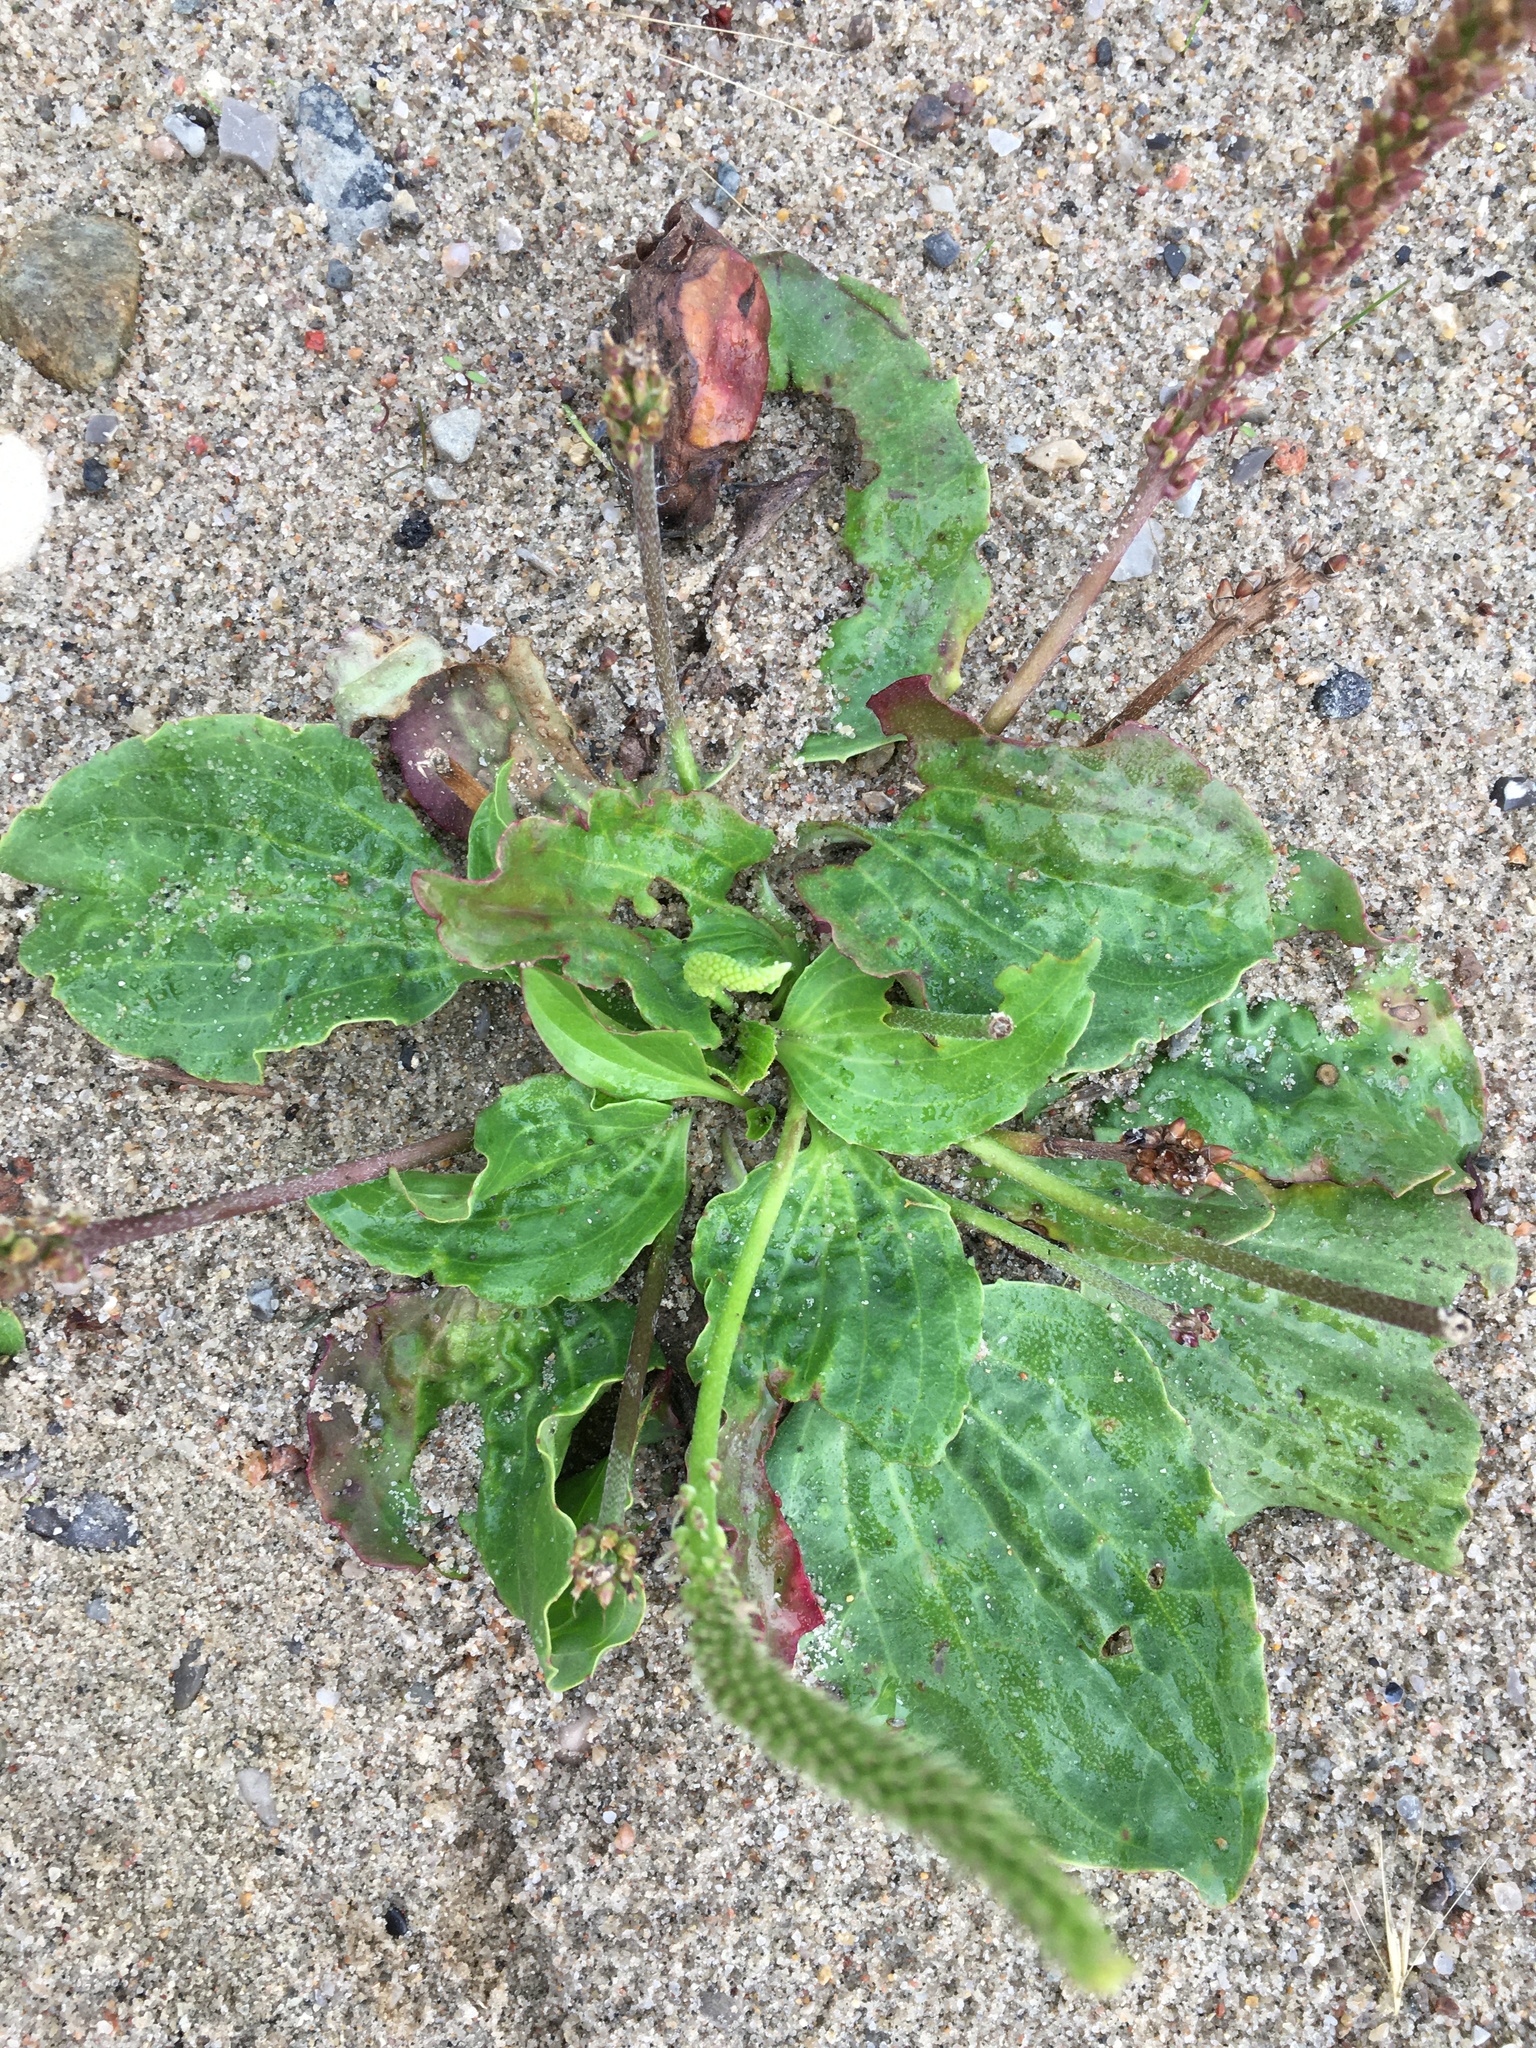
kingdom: Plantae
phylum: Tracheophyta
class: Magnoliopsida
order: Lamiales
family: Plantaginaceae
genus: Plantago
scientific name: Plantago major
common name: Common plantain
